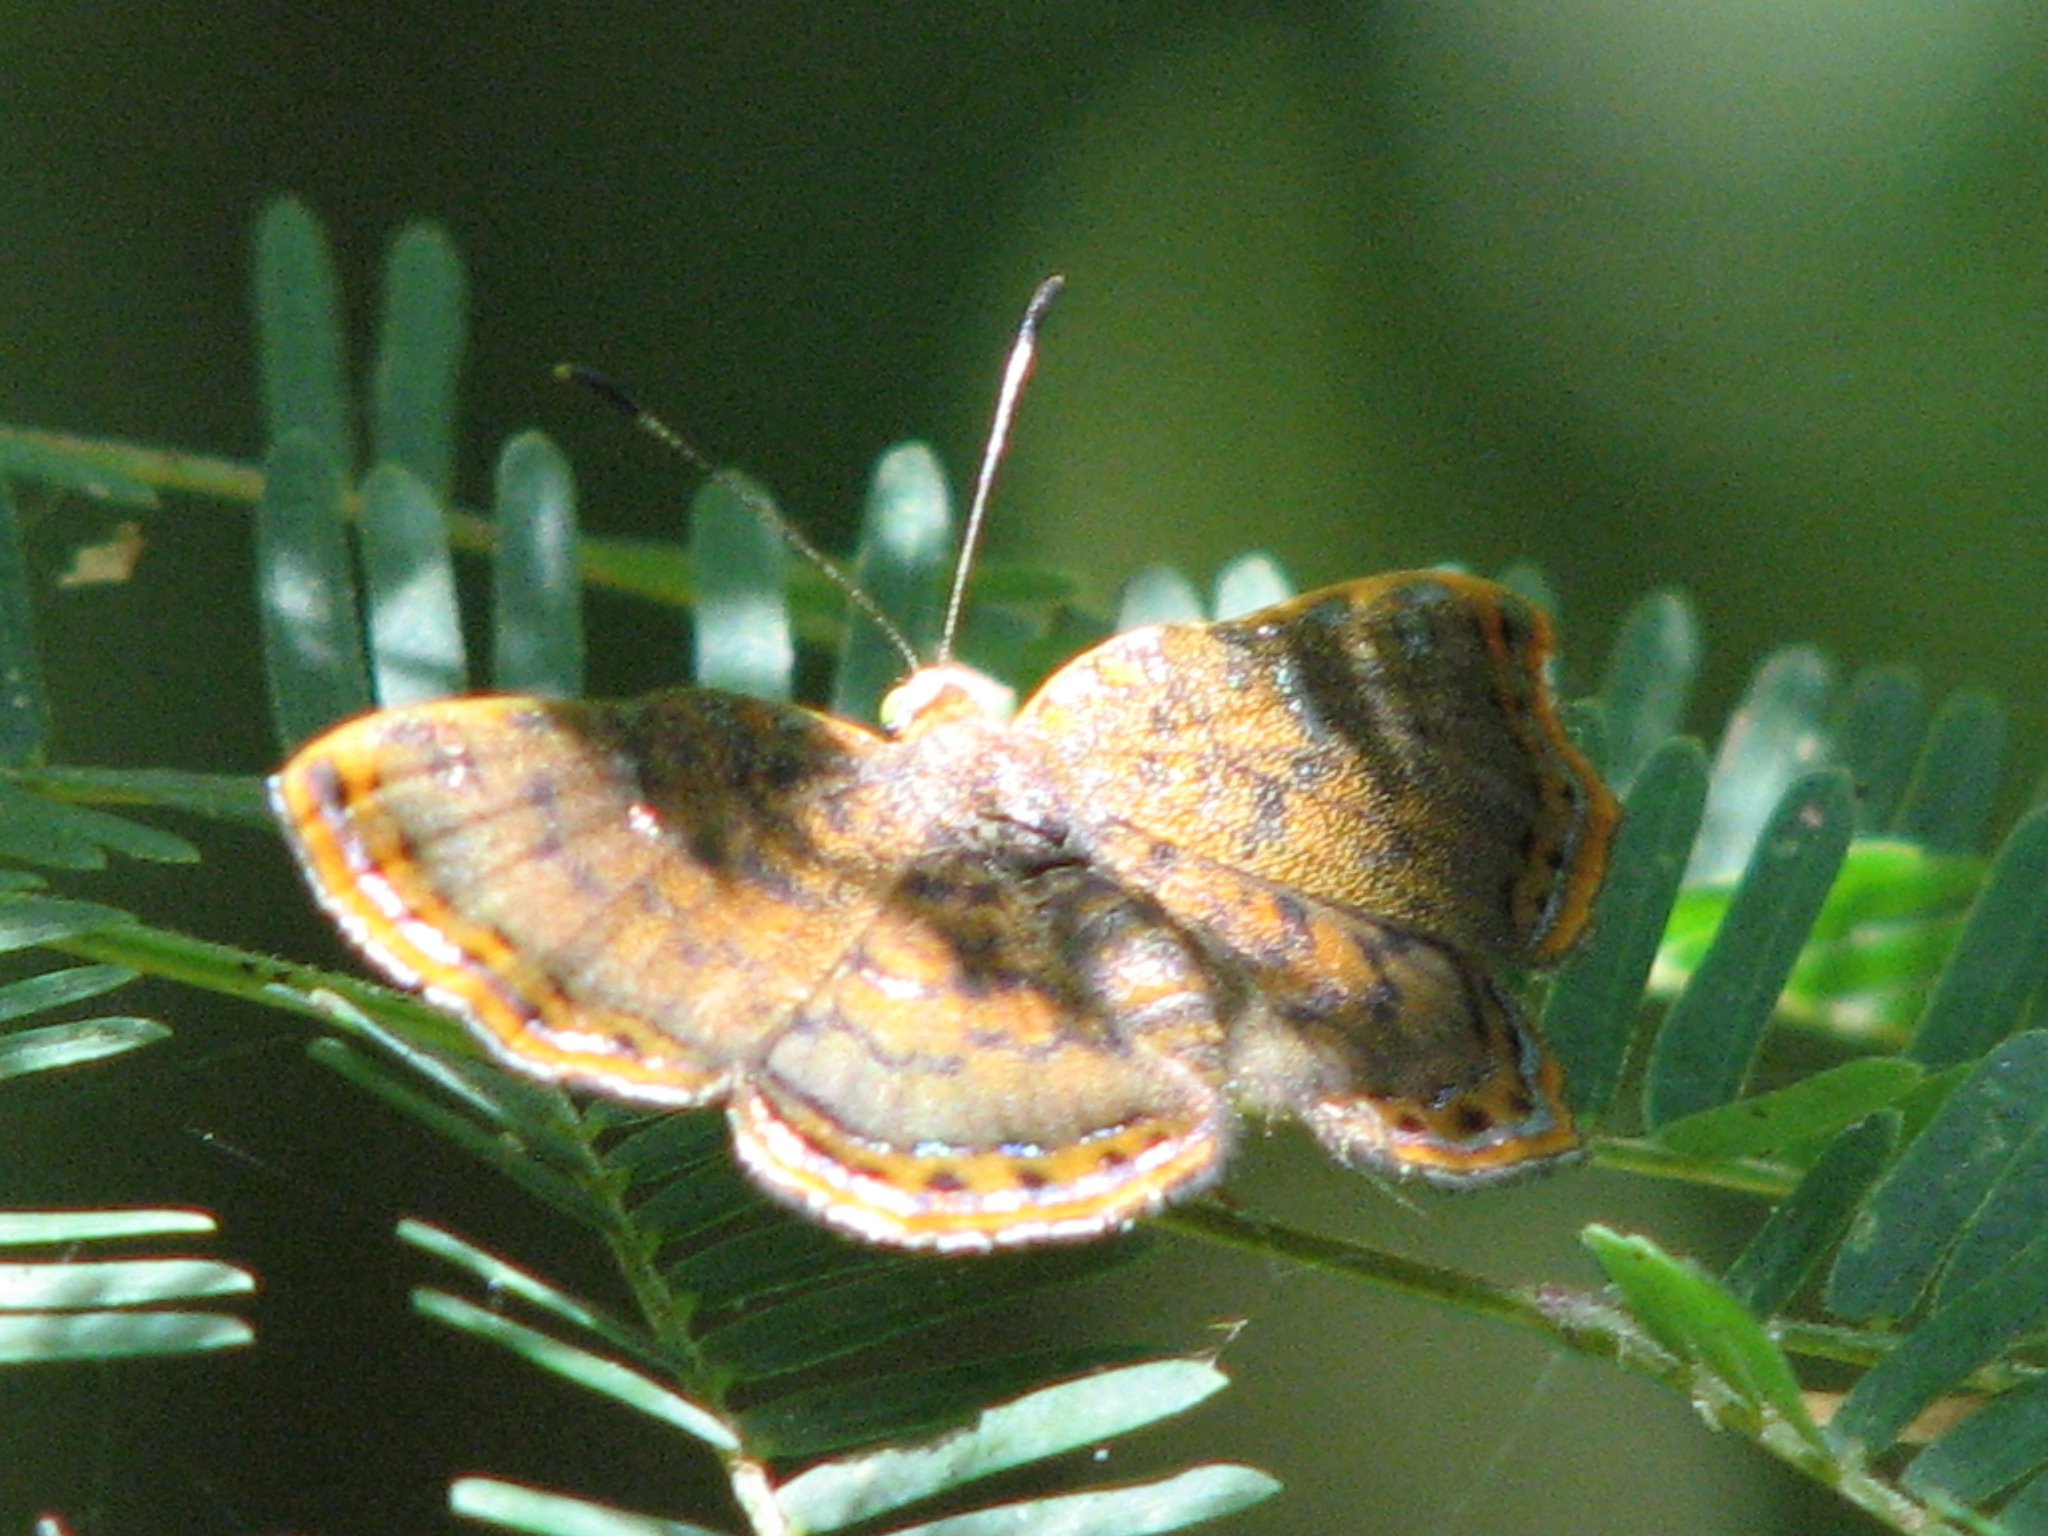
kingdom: Animalia
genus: Caria
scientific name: Caria ino
